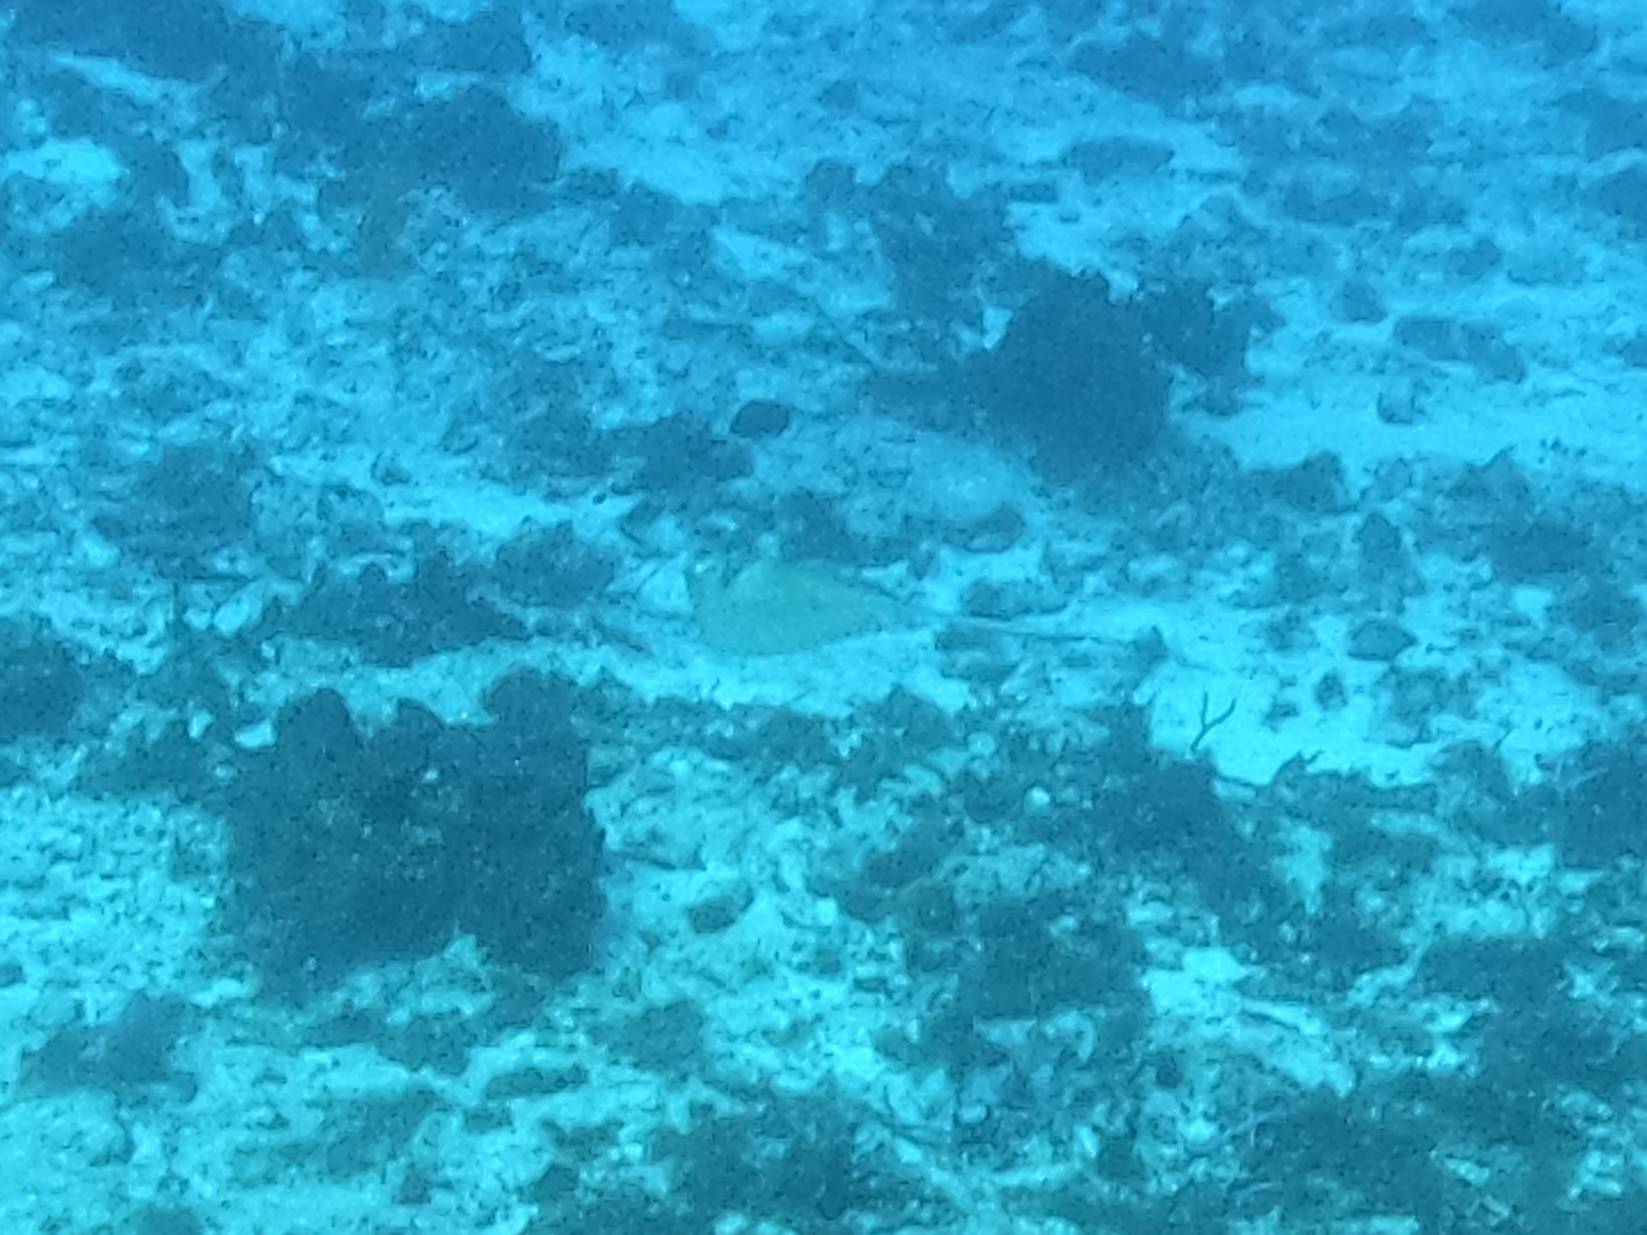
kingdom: Animalia
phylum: Chordata
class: Elasmobranchii
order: Myliobatiformes
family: Dasyatidae
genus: Hypanus
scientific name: Hypanus americanus
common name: Southern stingray
